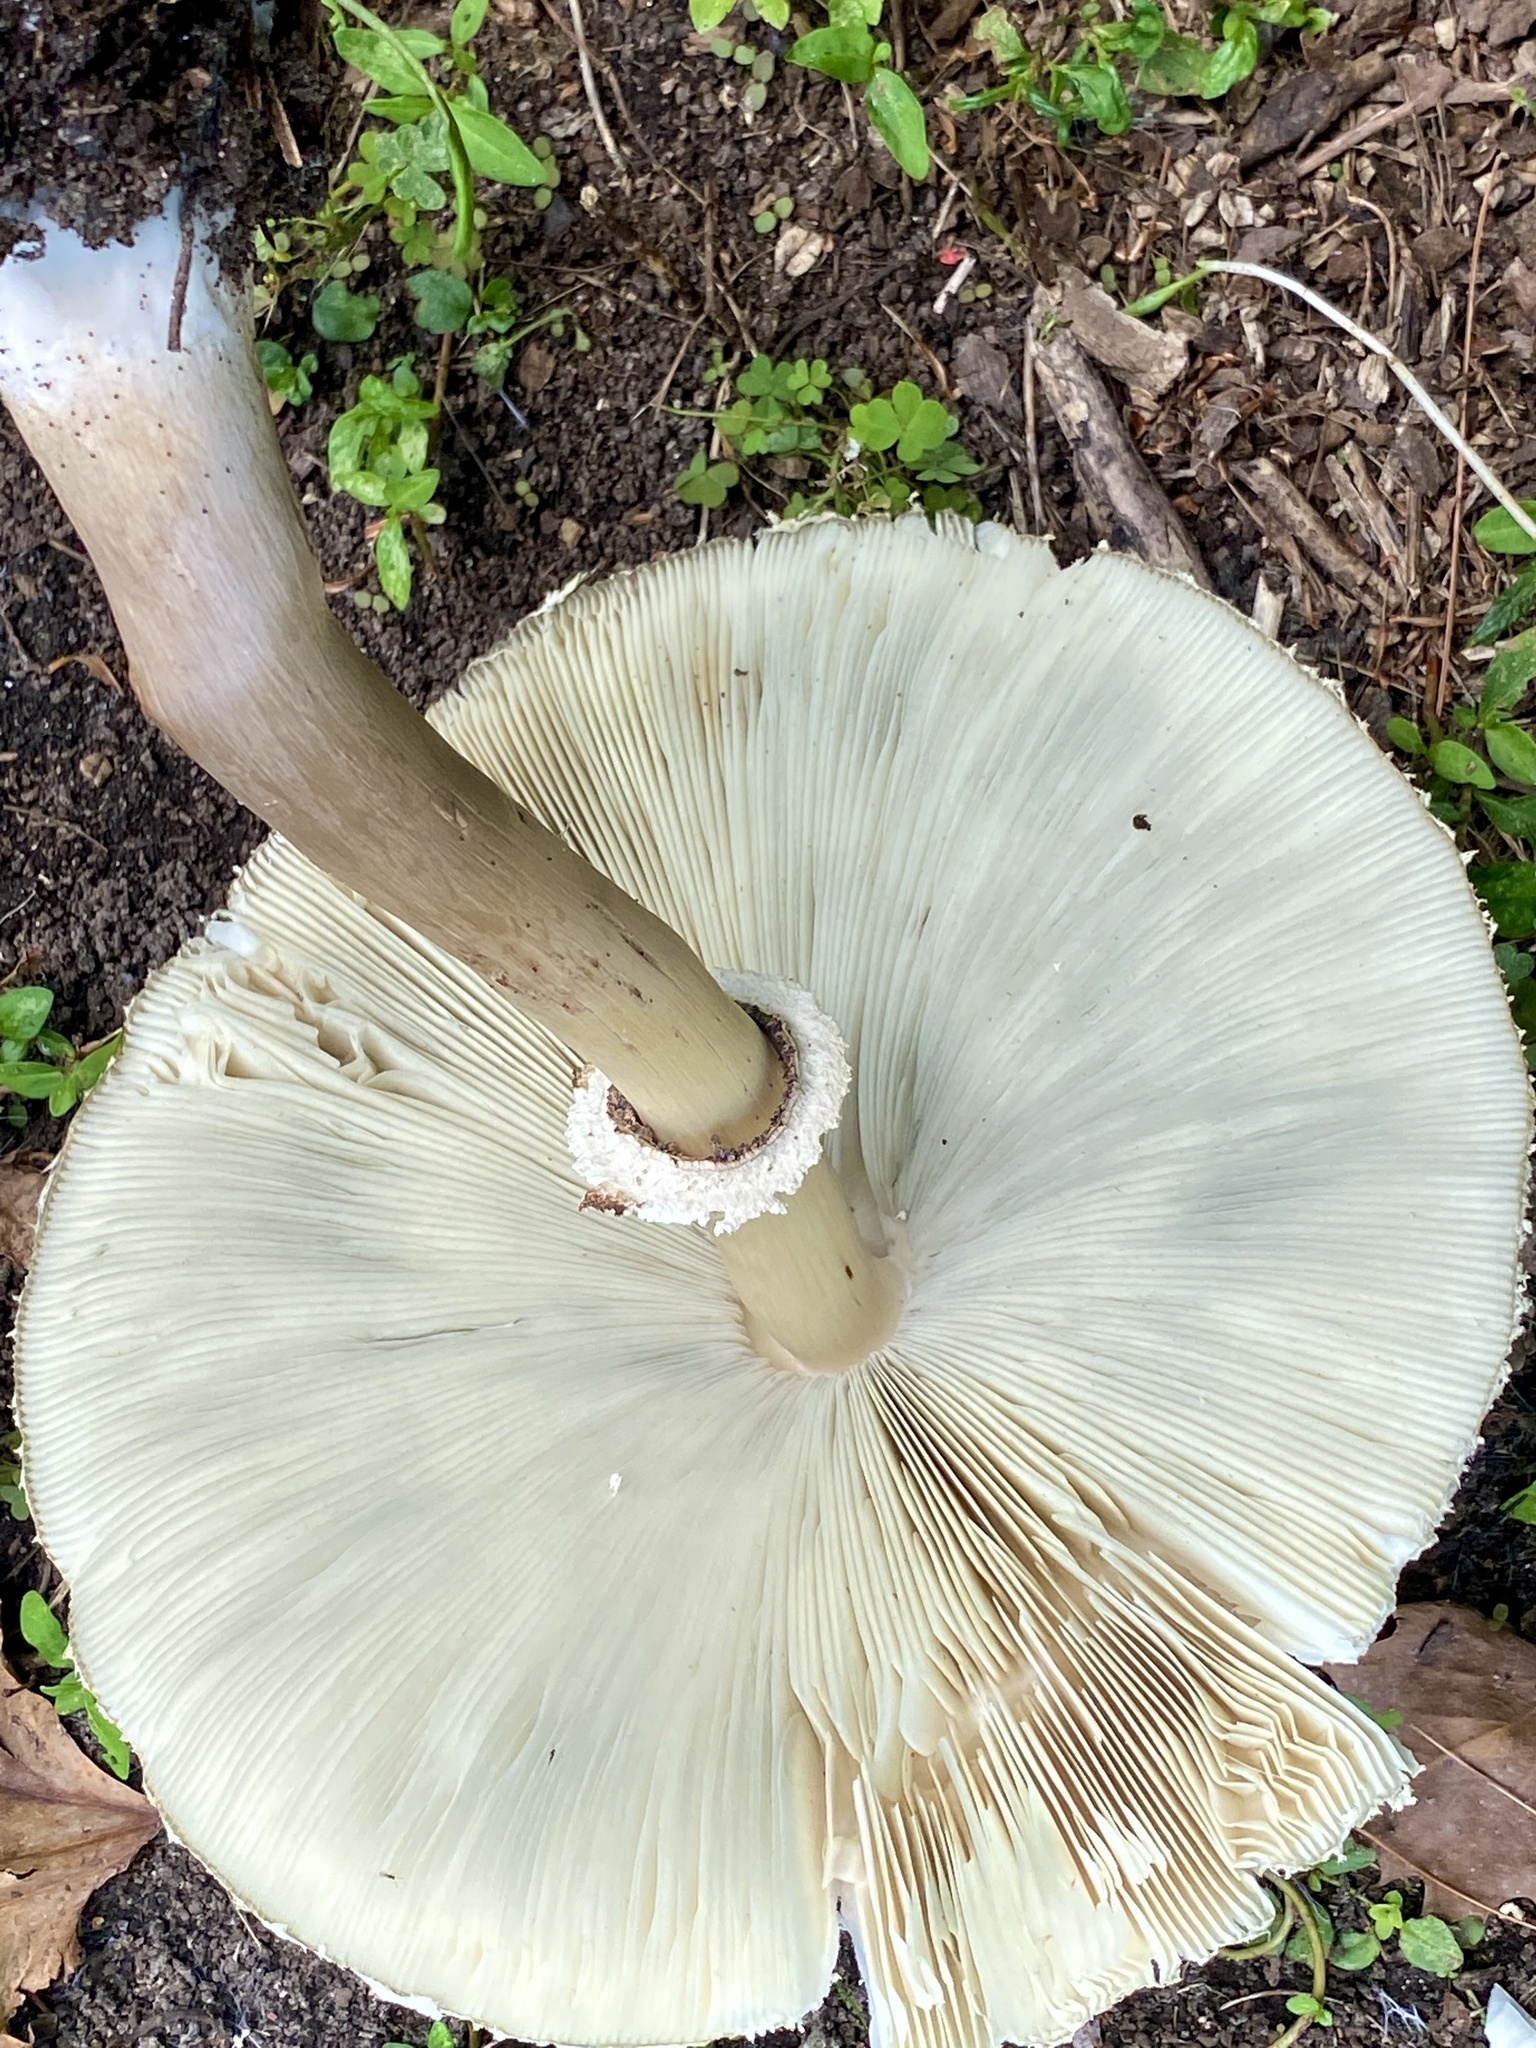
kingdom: Fungi
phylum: Basidiomycota
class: Agaricomycetes
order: Agaricales
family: Agaricaceae
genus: Chlorophyllum
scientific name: Chlorophyllum molybdites
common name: False parasol
